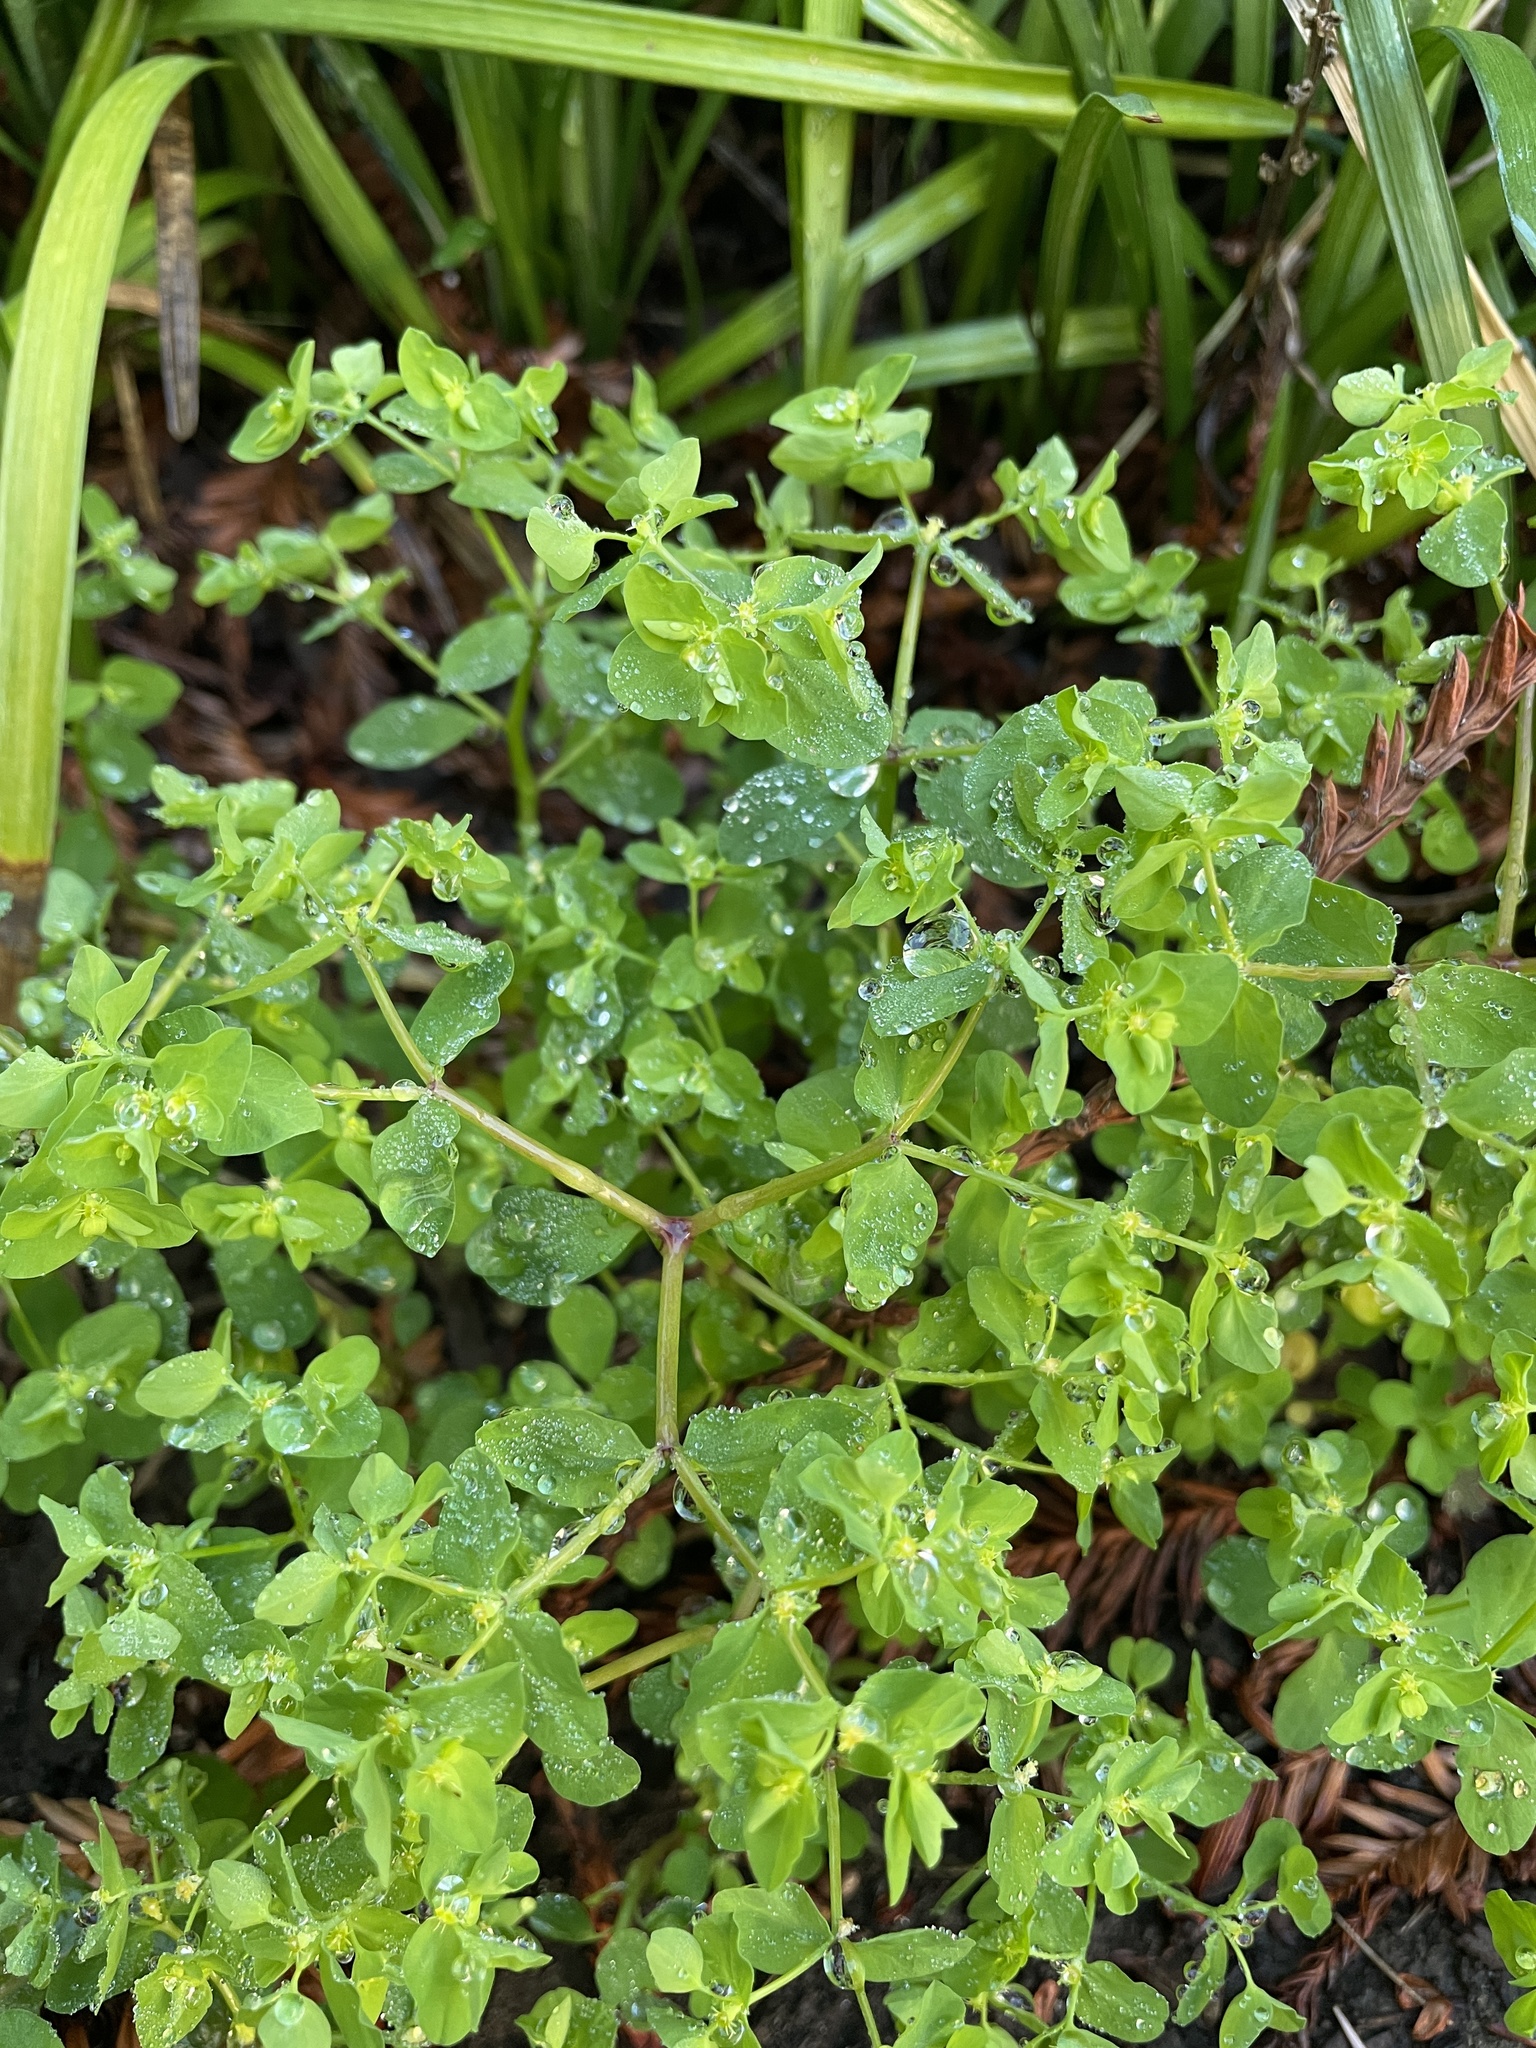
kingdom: Plantae
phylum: Tracheophyta
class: Magnoliopsida
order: Malpighiales
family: Euphorbiaceae
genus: Euphorbia
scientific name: Euphorbia peplus
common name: Petty spurge
